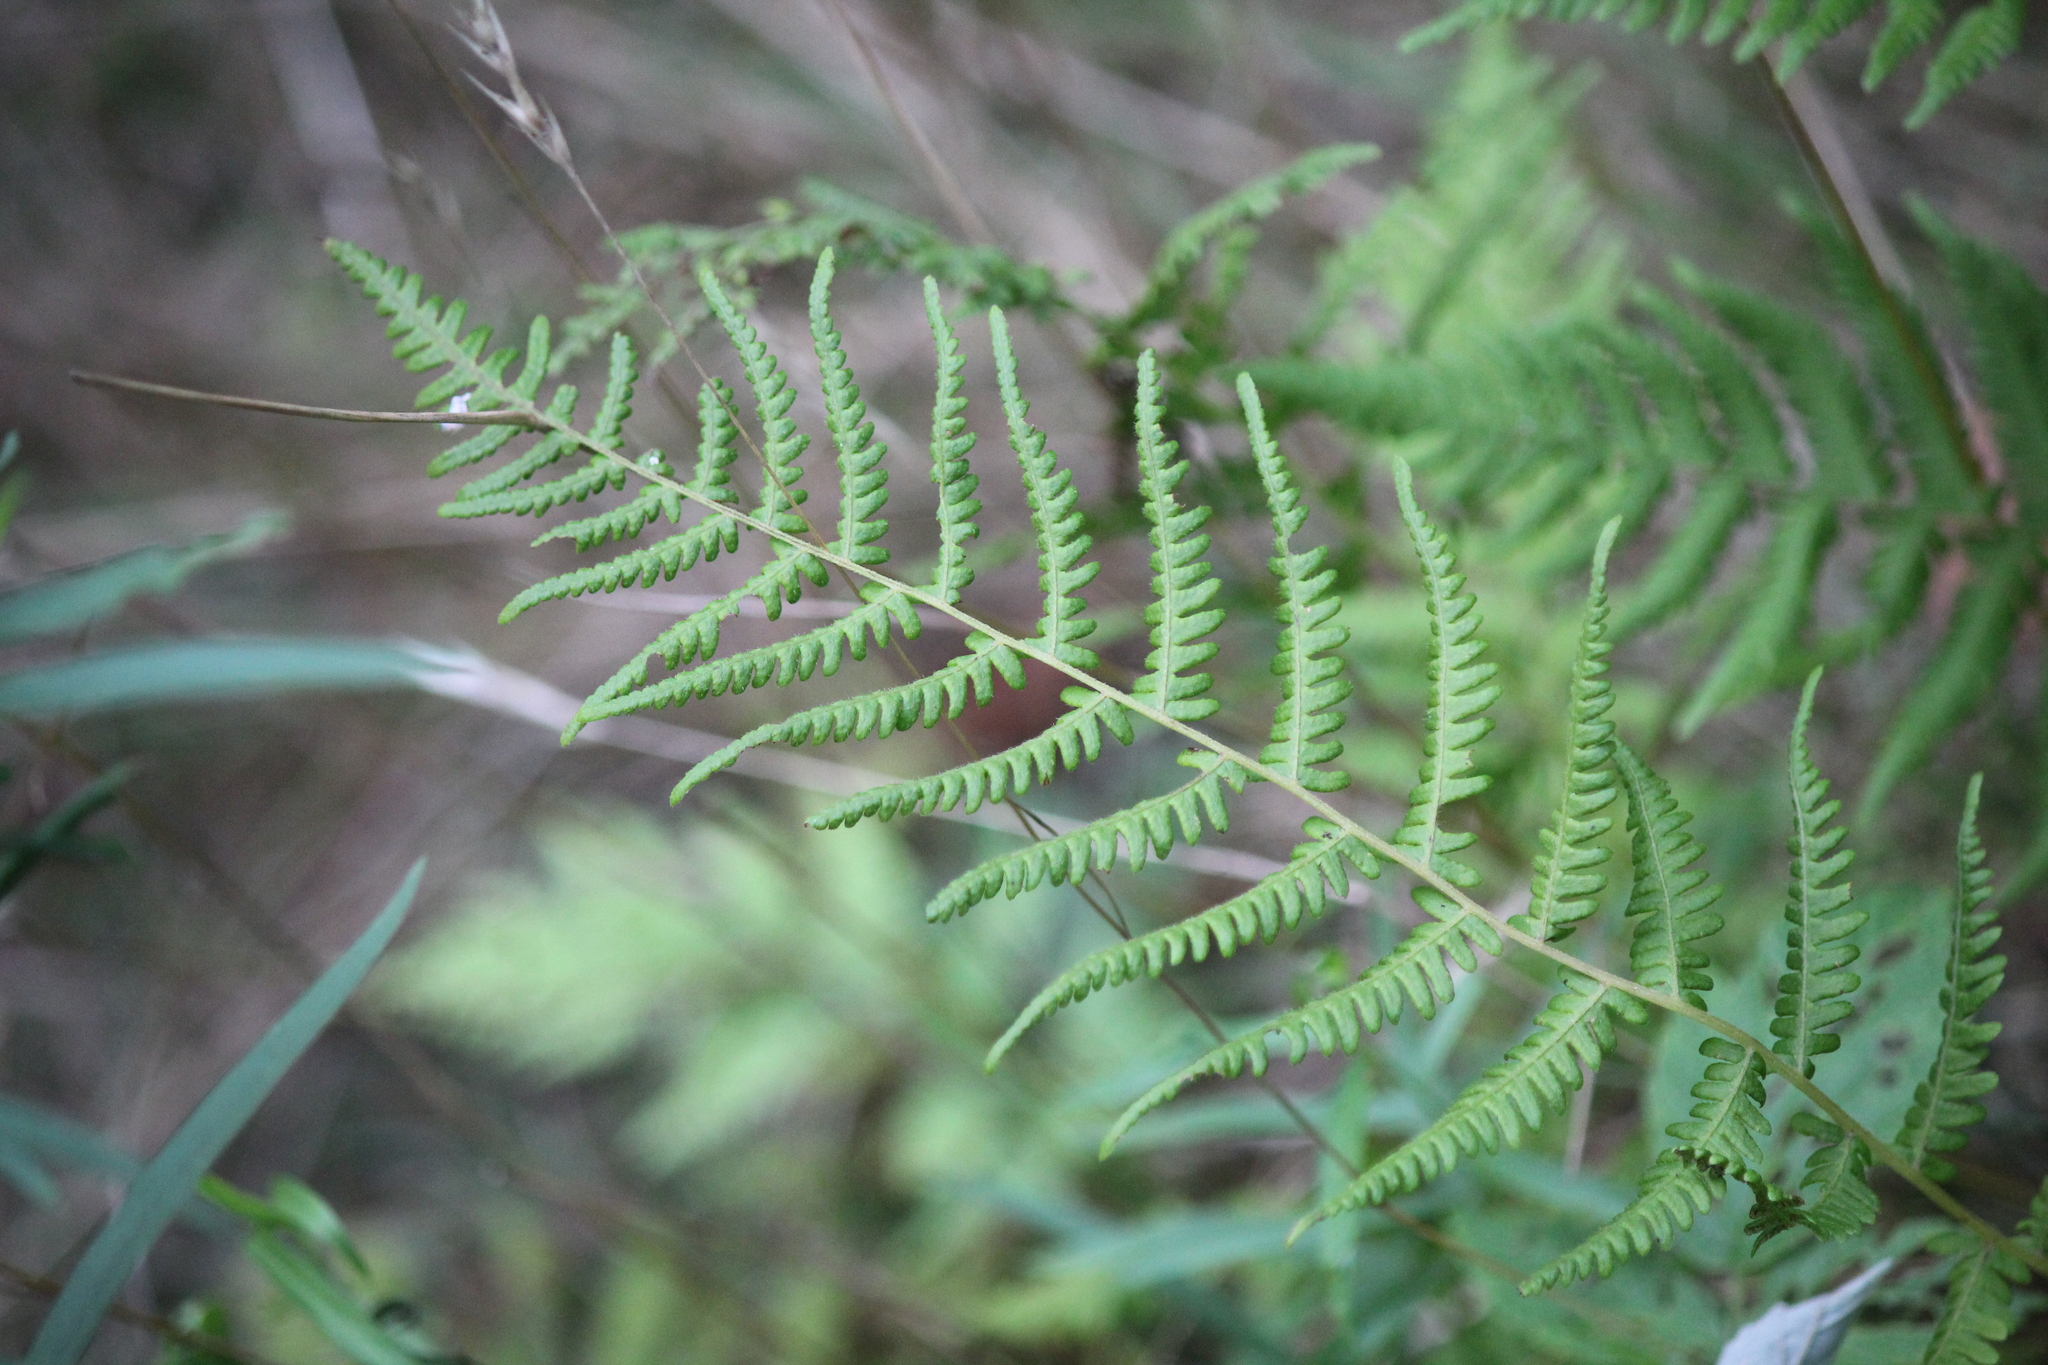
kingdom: Plantae
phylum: Tracheophyta
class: Polypodiopsida
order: Polypodiales
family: Thelypteridaceae
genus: Amauropelta
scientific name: Amauropelta noveboracensis
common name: New york fern
